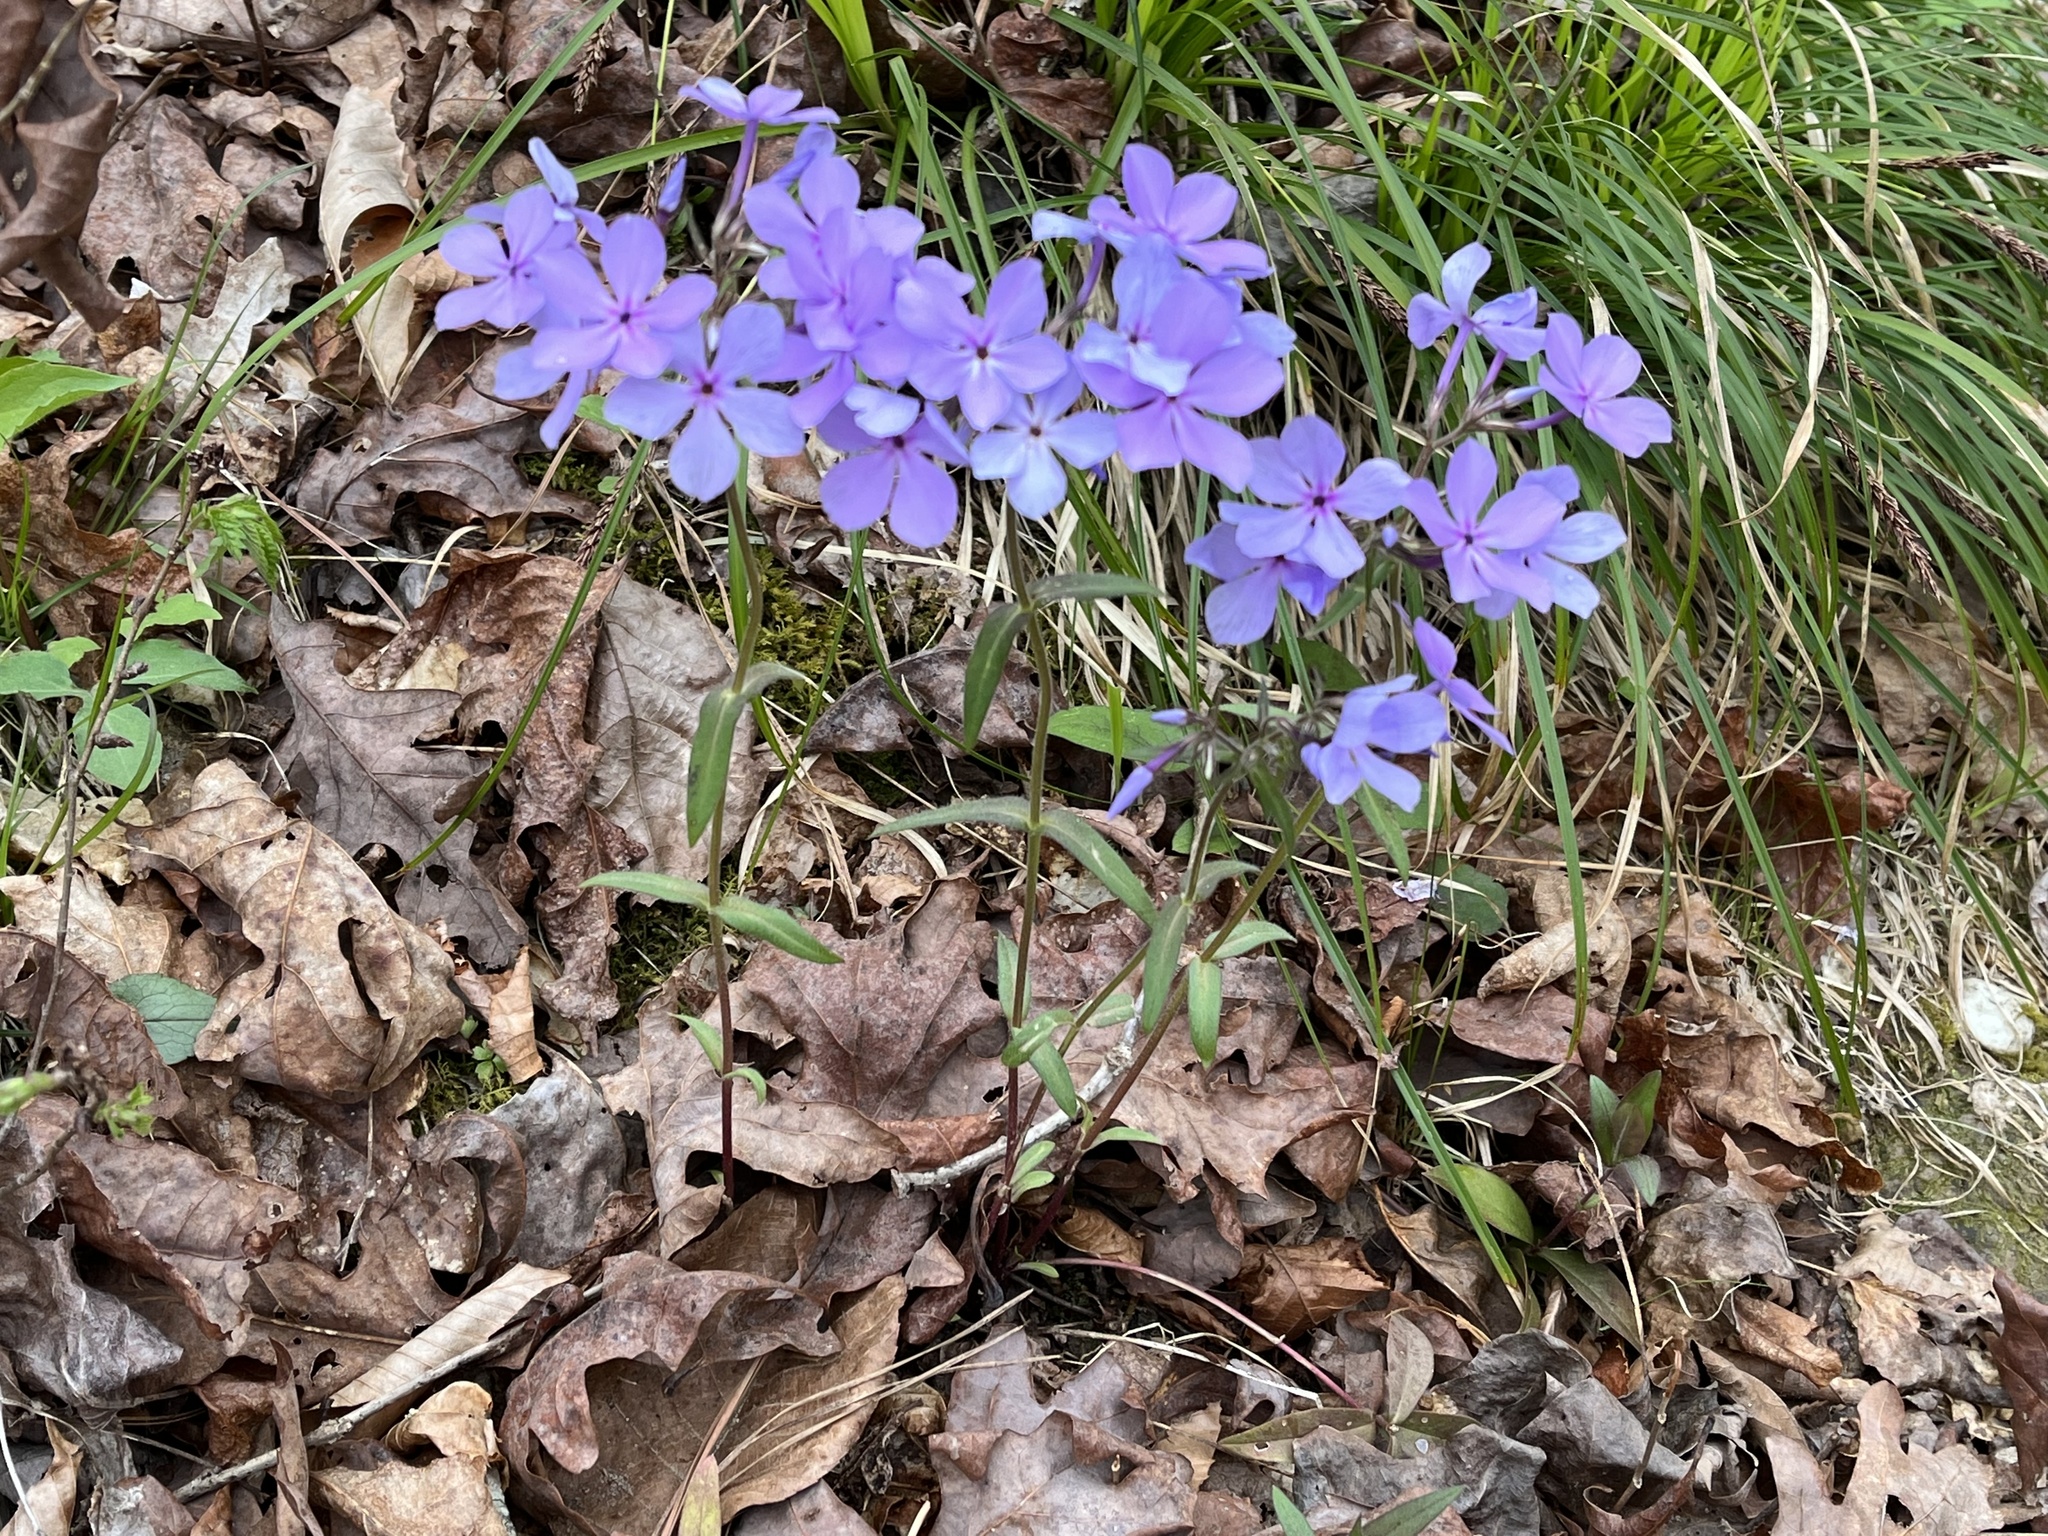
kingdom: Plantae
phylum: Tracheophyta
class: Magnoliopsida
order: Ericales
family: Polemoniaceae
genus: Phlox
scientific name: Phlox divaricata
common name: Blue phlox
